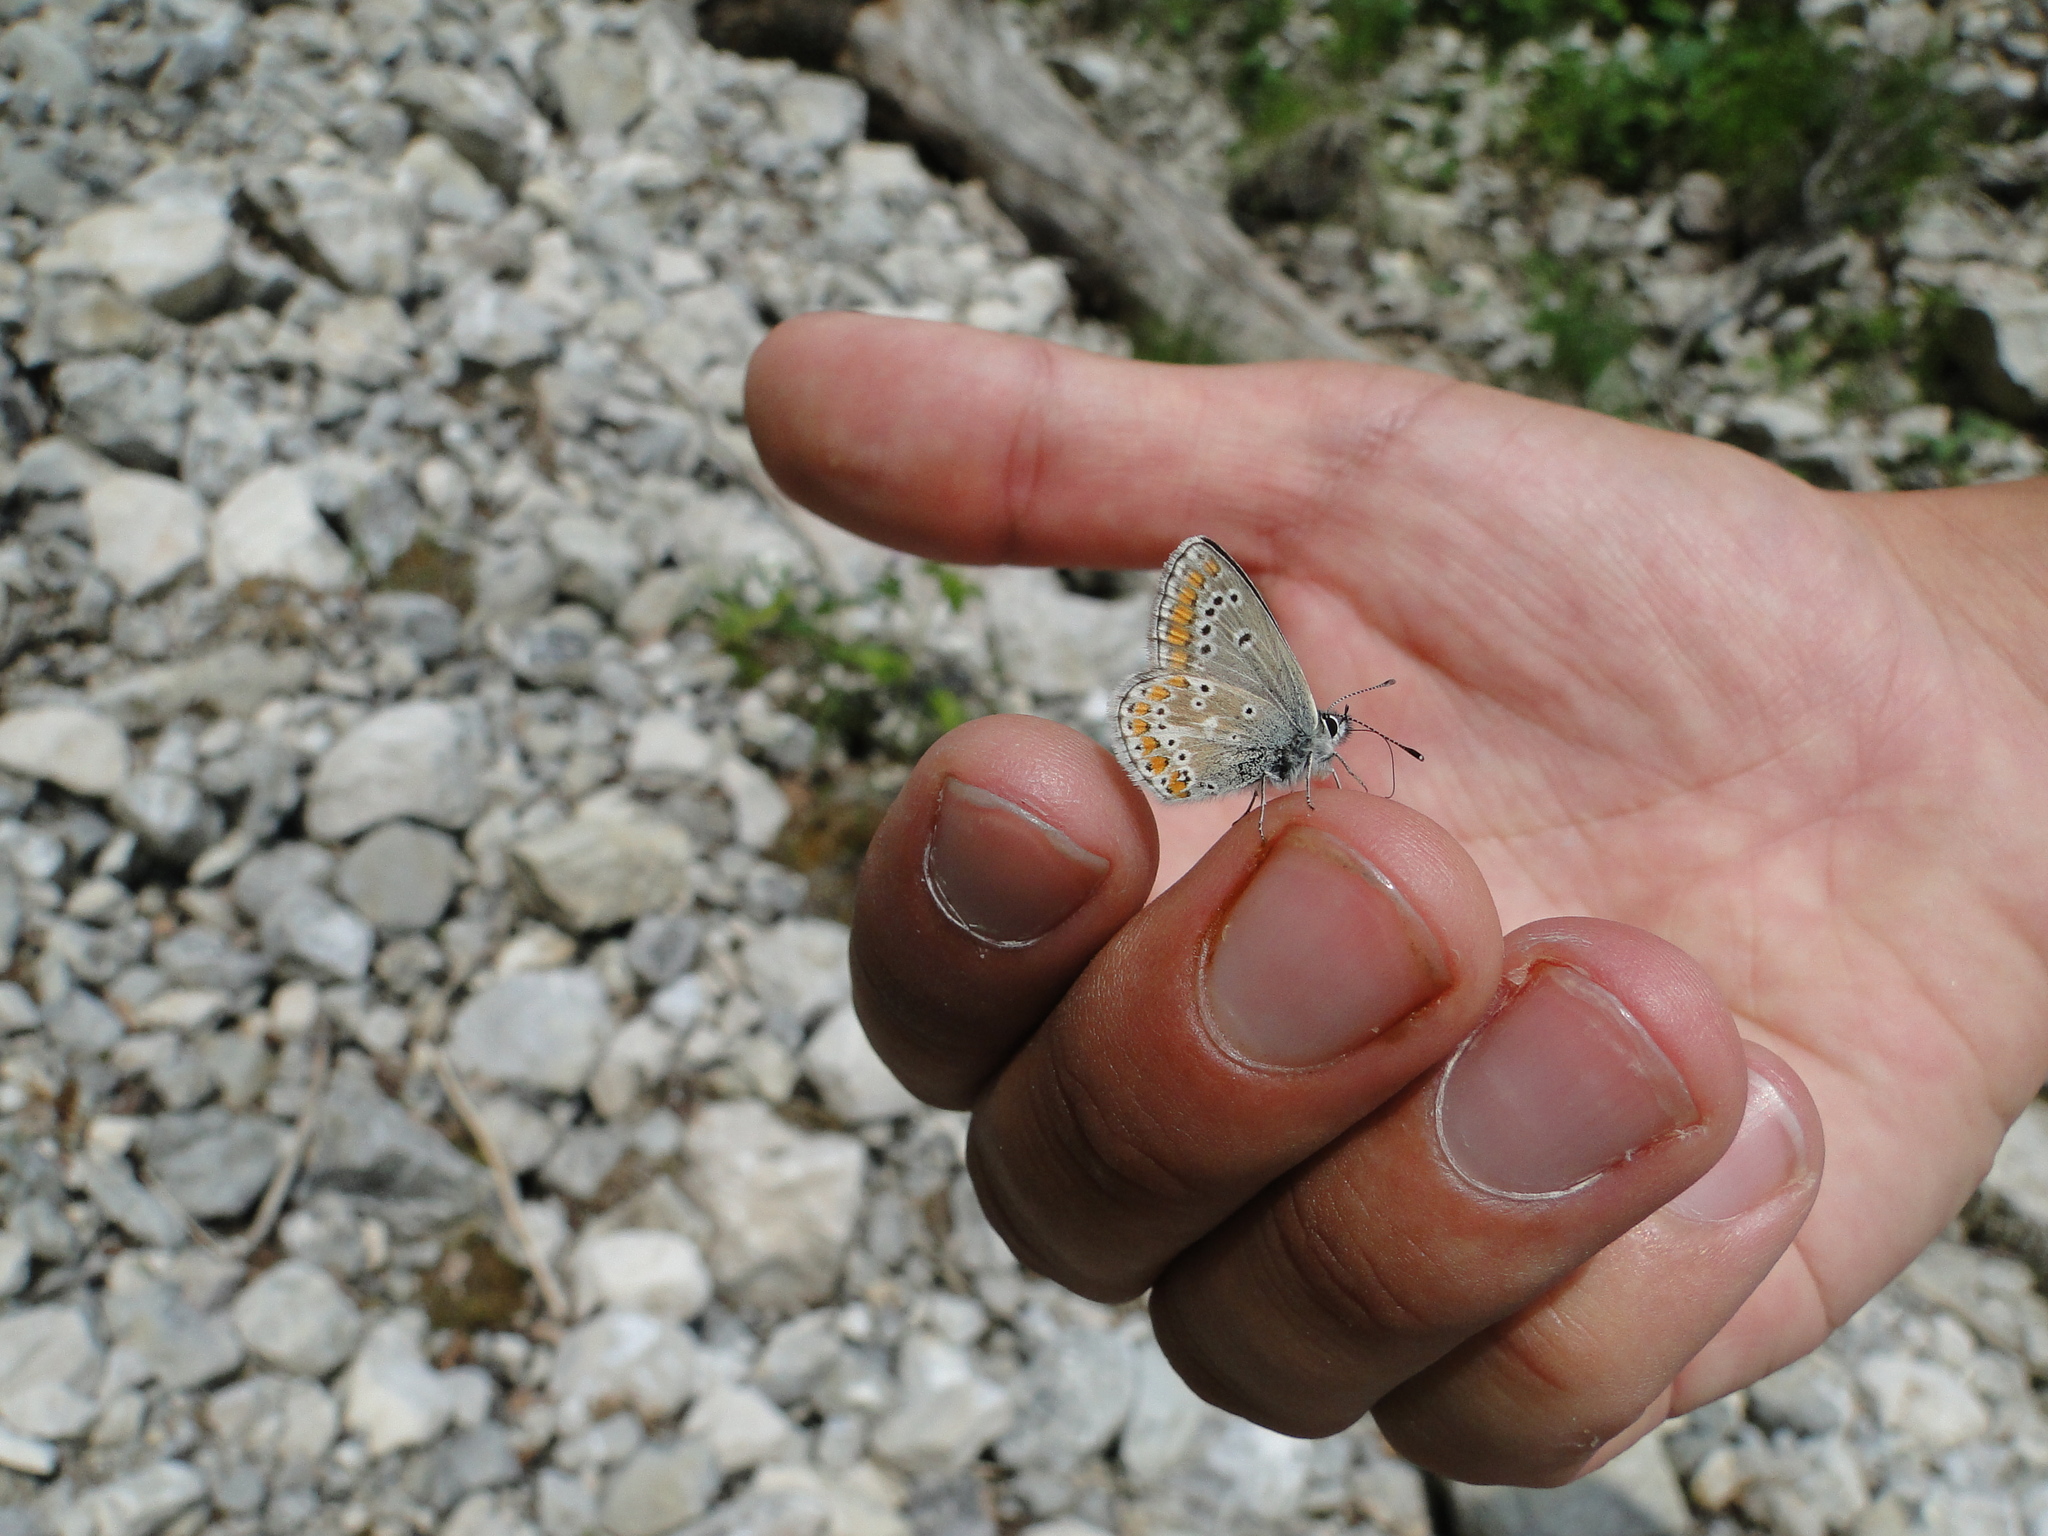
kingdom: Animalia
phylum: Arthropoda
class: Insecta
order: Lepidoptera
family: Lycaenidae
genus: Aricia
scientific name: Aricia artaxerxes
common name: Northern brown argus
